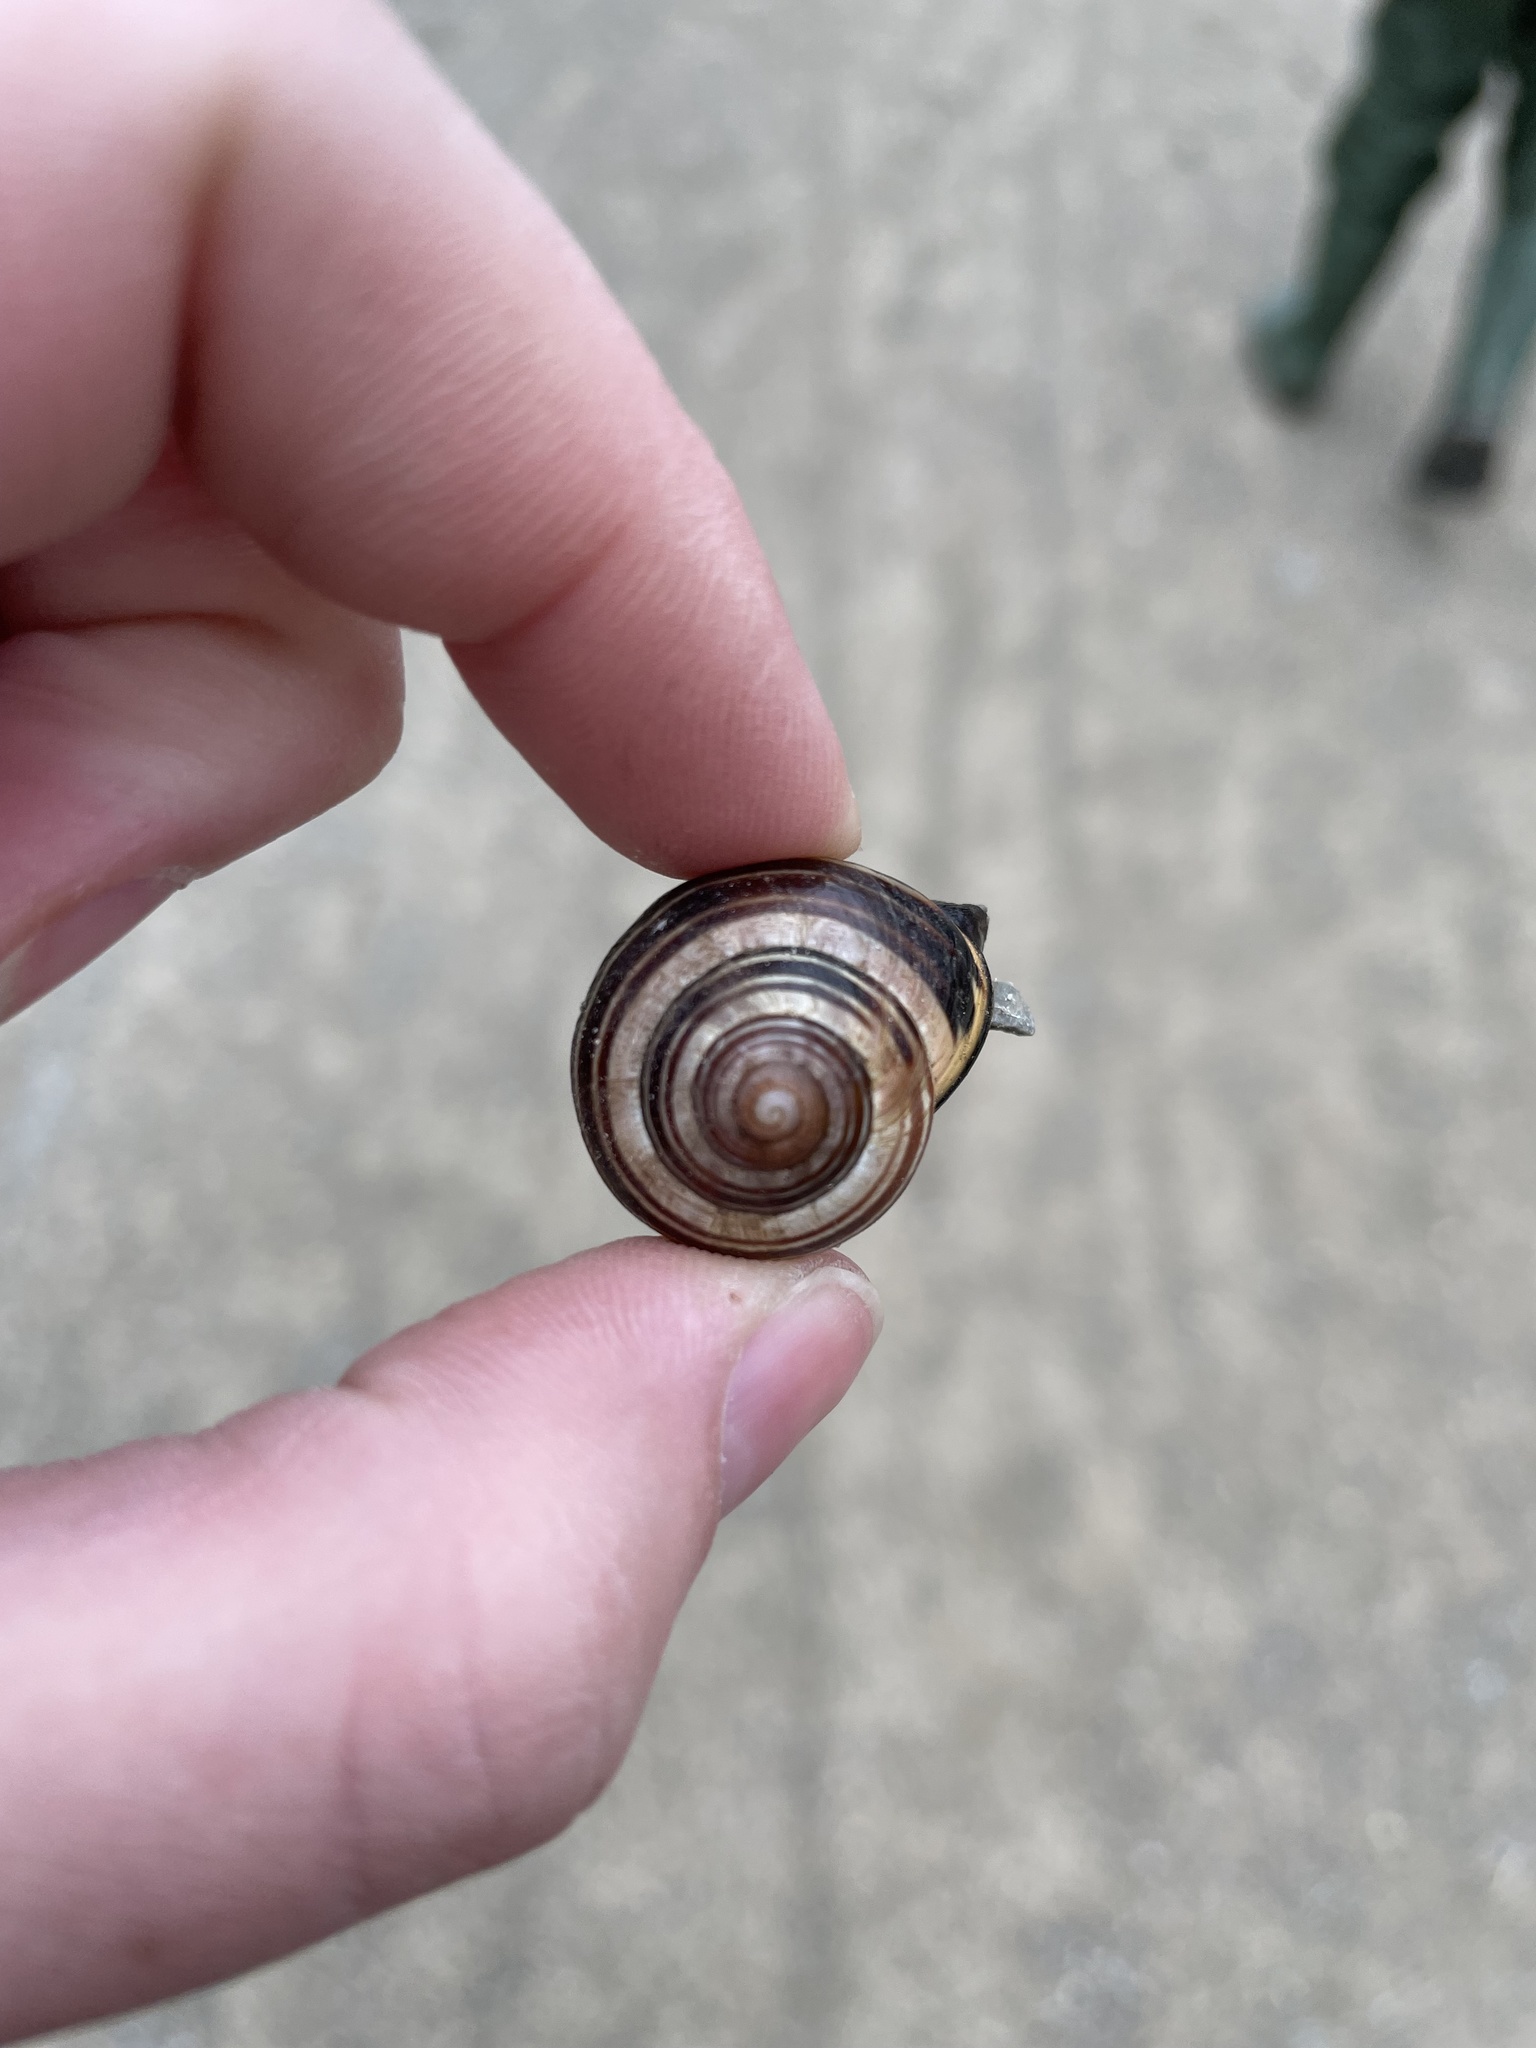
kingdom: Animalia
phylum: Mollusca
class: Gastropoda
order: Stylommatophora
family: Helicidae
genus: Cepaea
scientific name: Cepaea nemoralis
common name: Grovesnail
